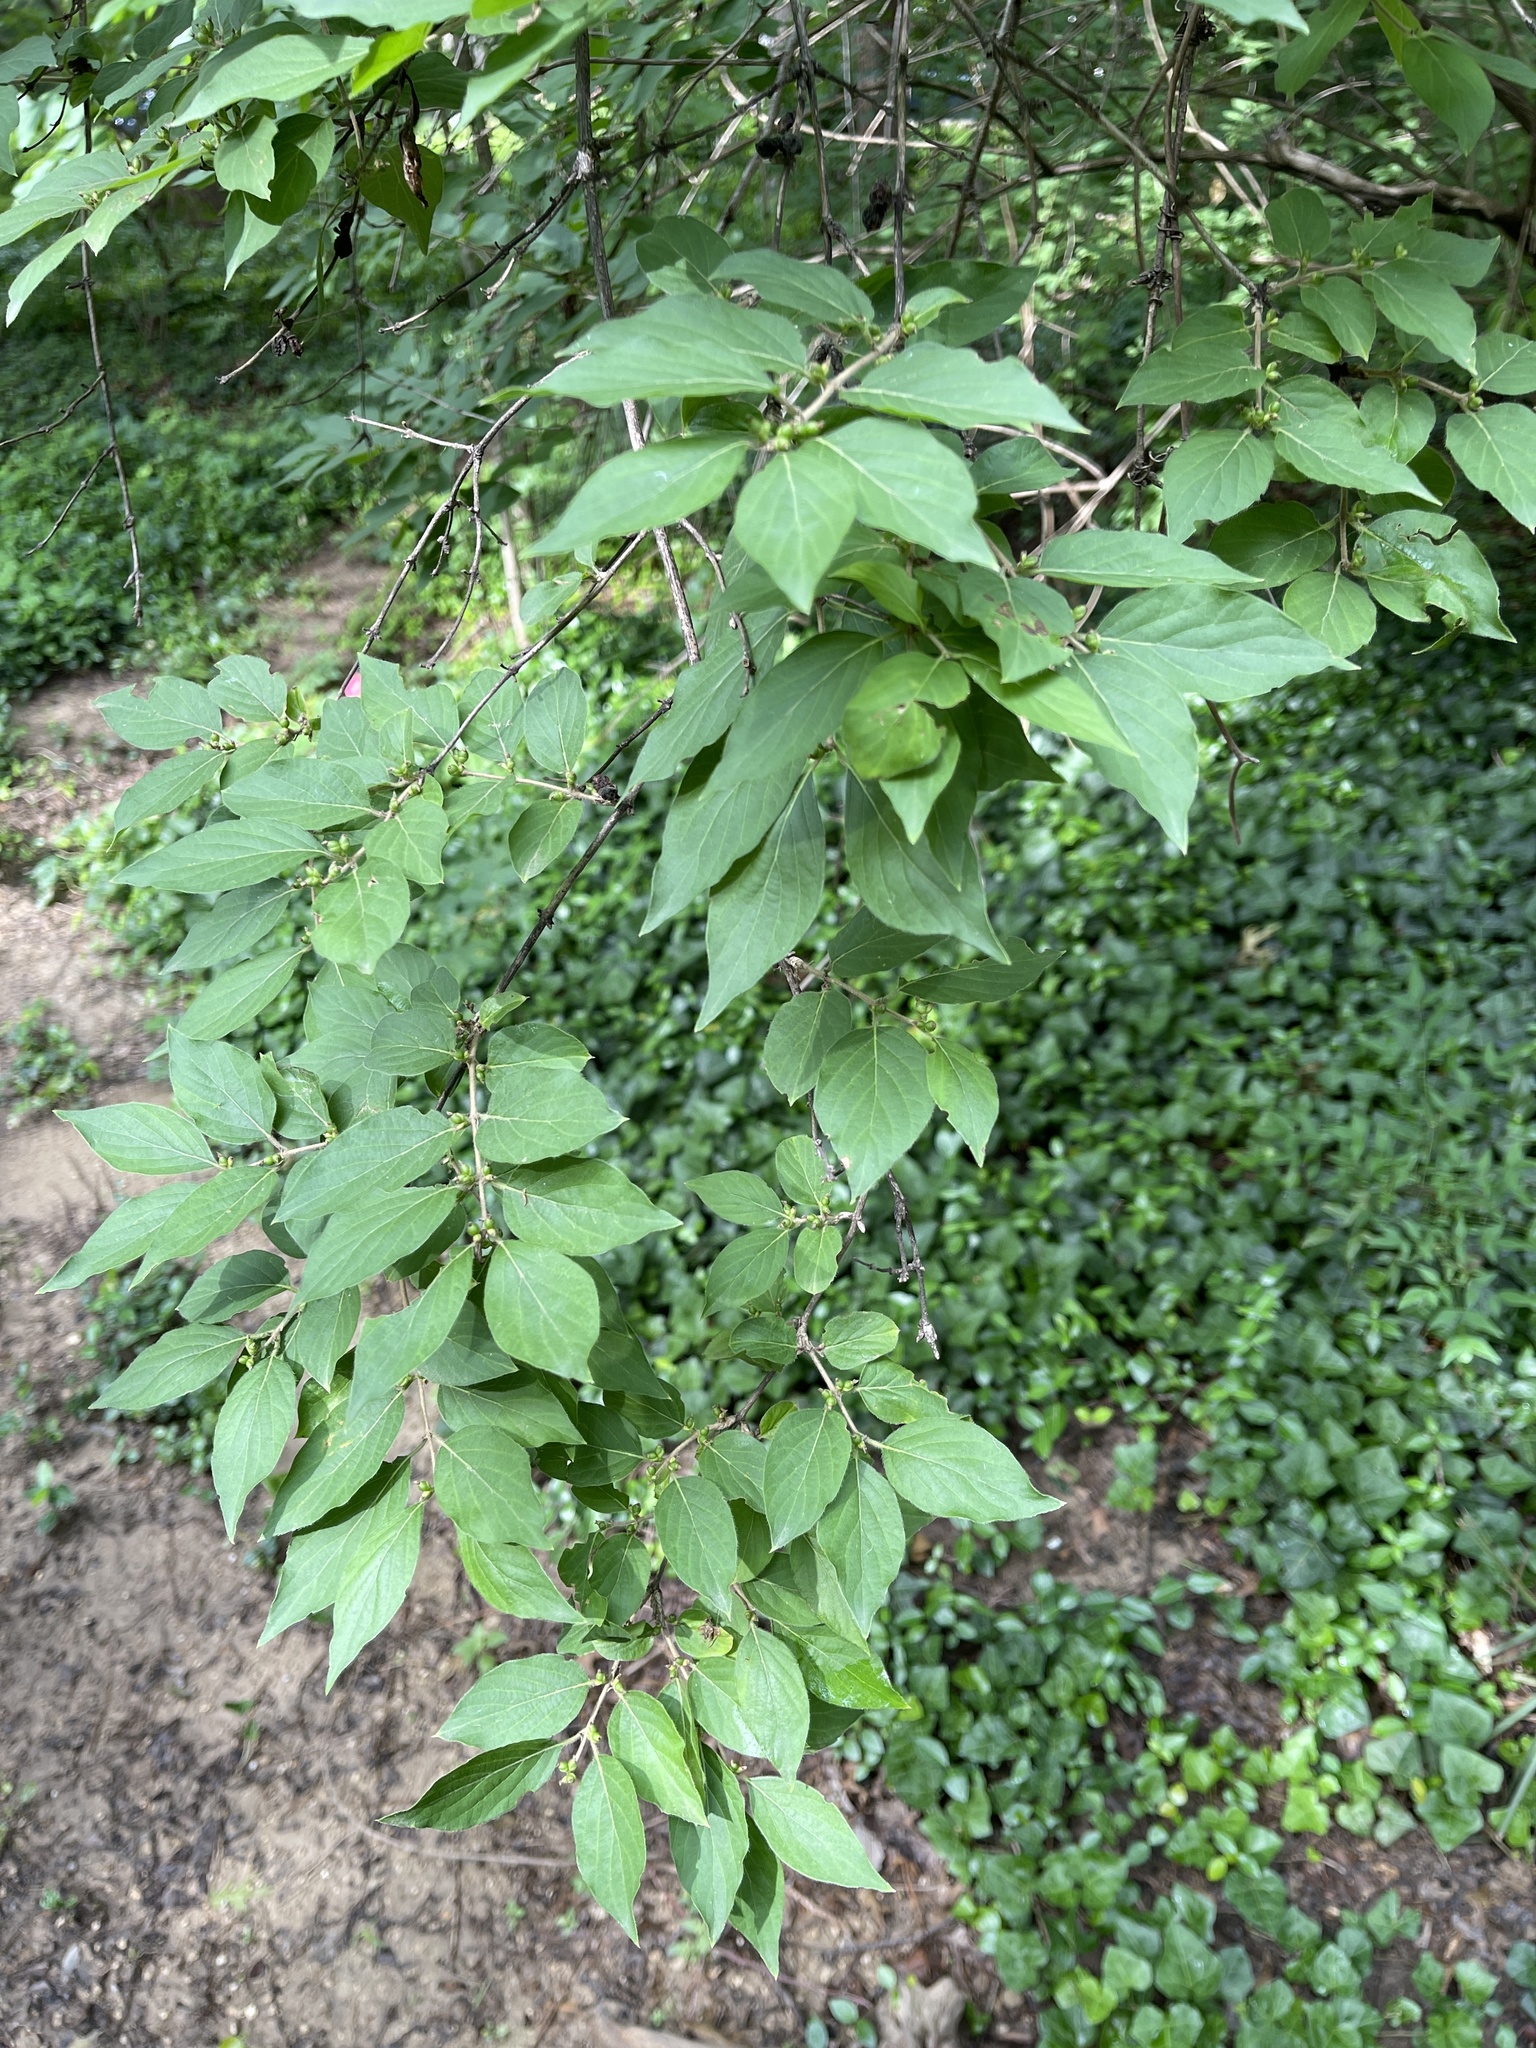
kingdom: Plantae
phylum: Tracheophyta
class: Magnoliopsida
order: Dipsacales
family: Caprifoliaceae
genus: Lonicera
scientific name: Lonicera maackii
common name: Amur honeysuckle
